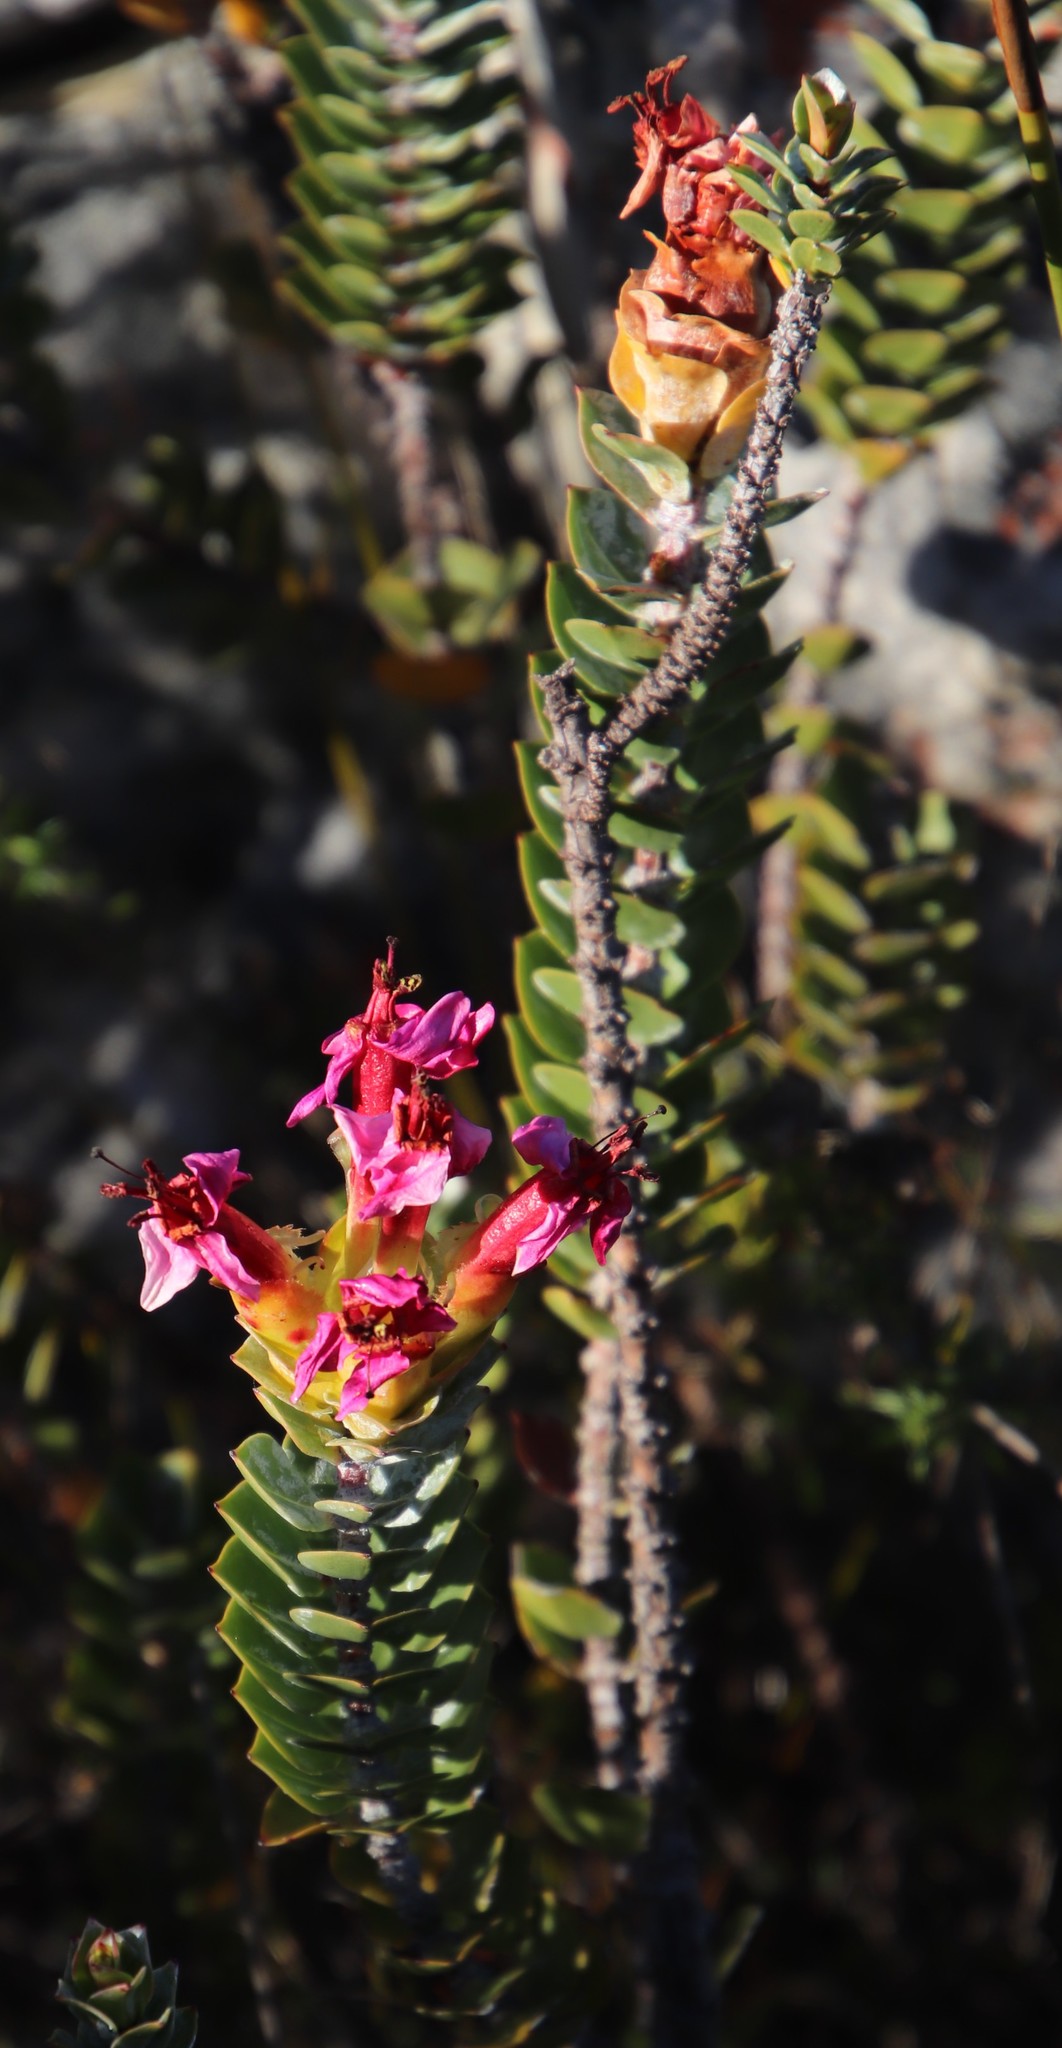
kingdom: Plantae
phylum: Tracheophyta
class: Magnoliopsida
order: Myrtales
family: Penaeaceae
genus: Saltera
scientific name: Saltera sarcocolla
